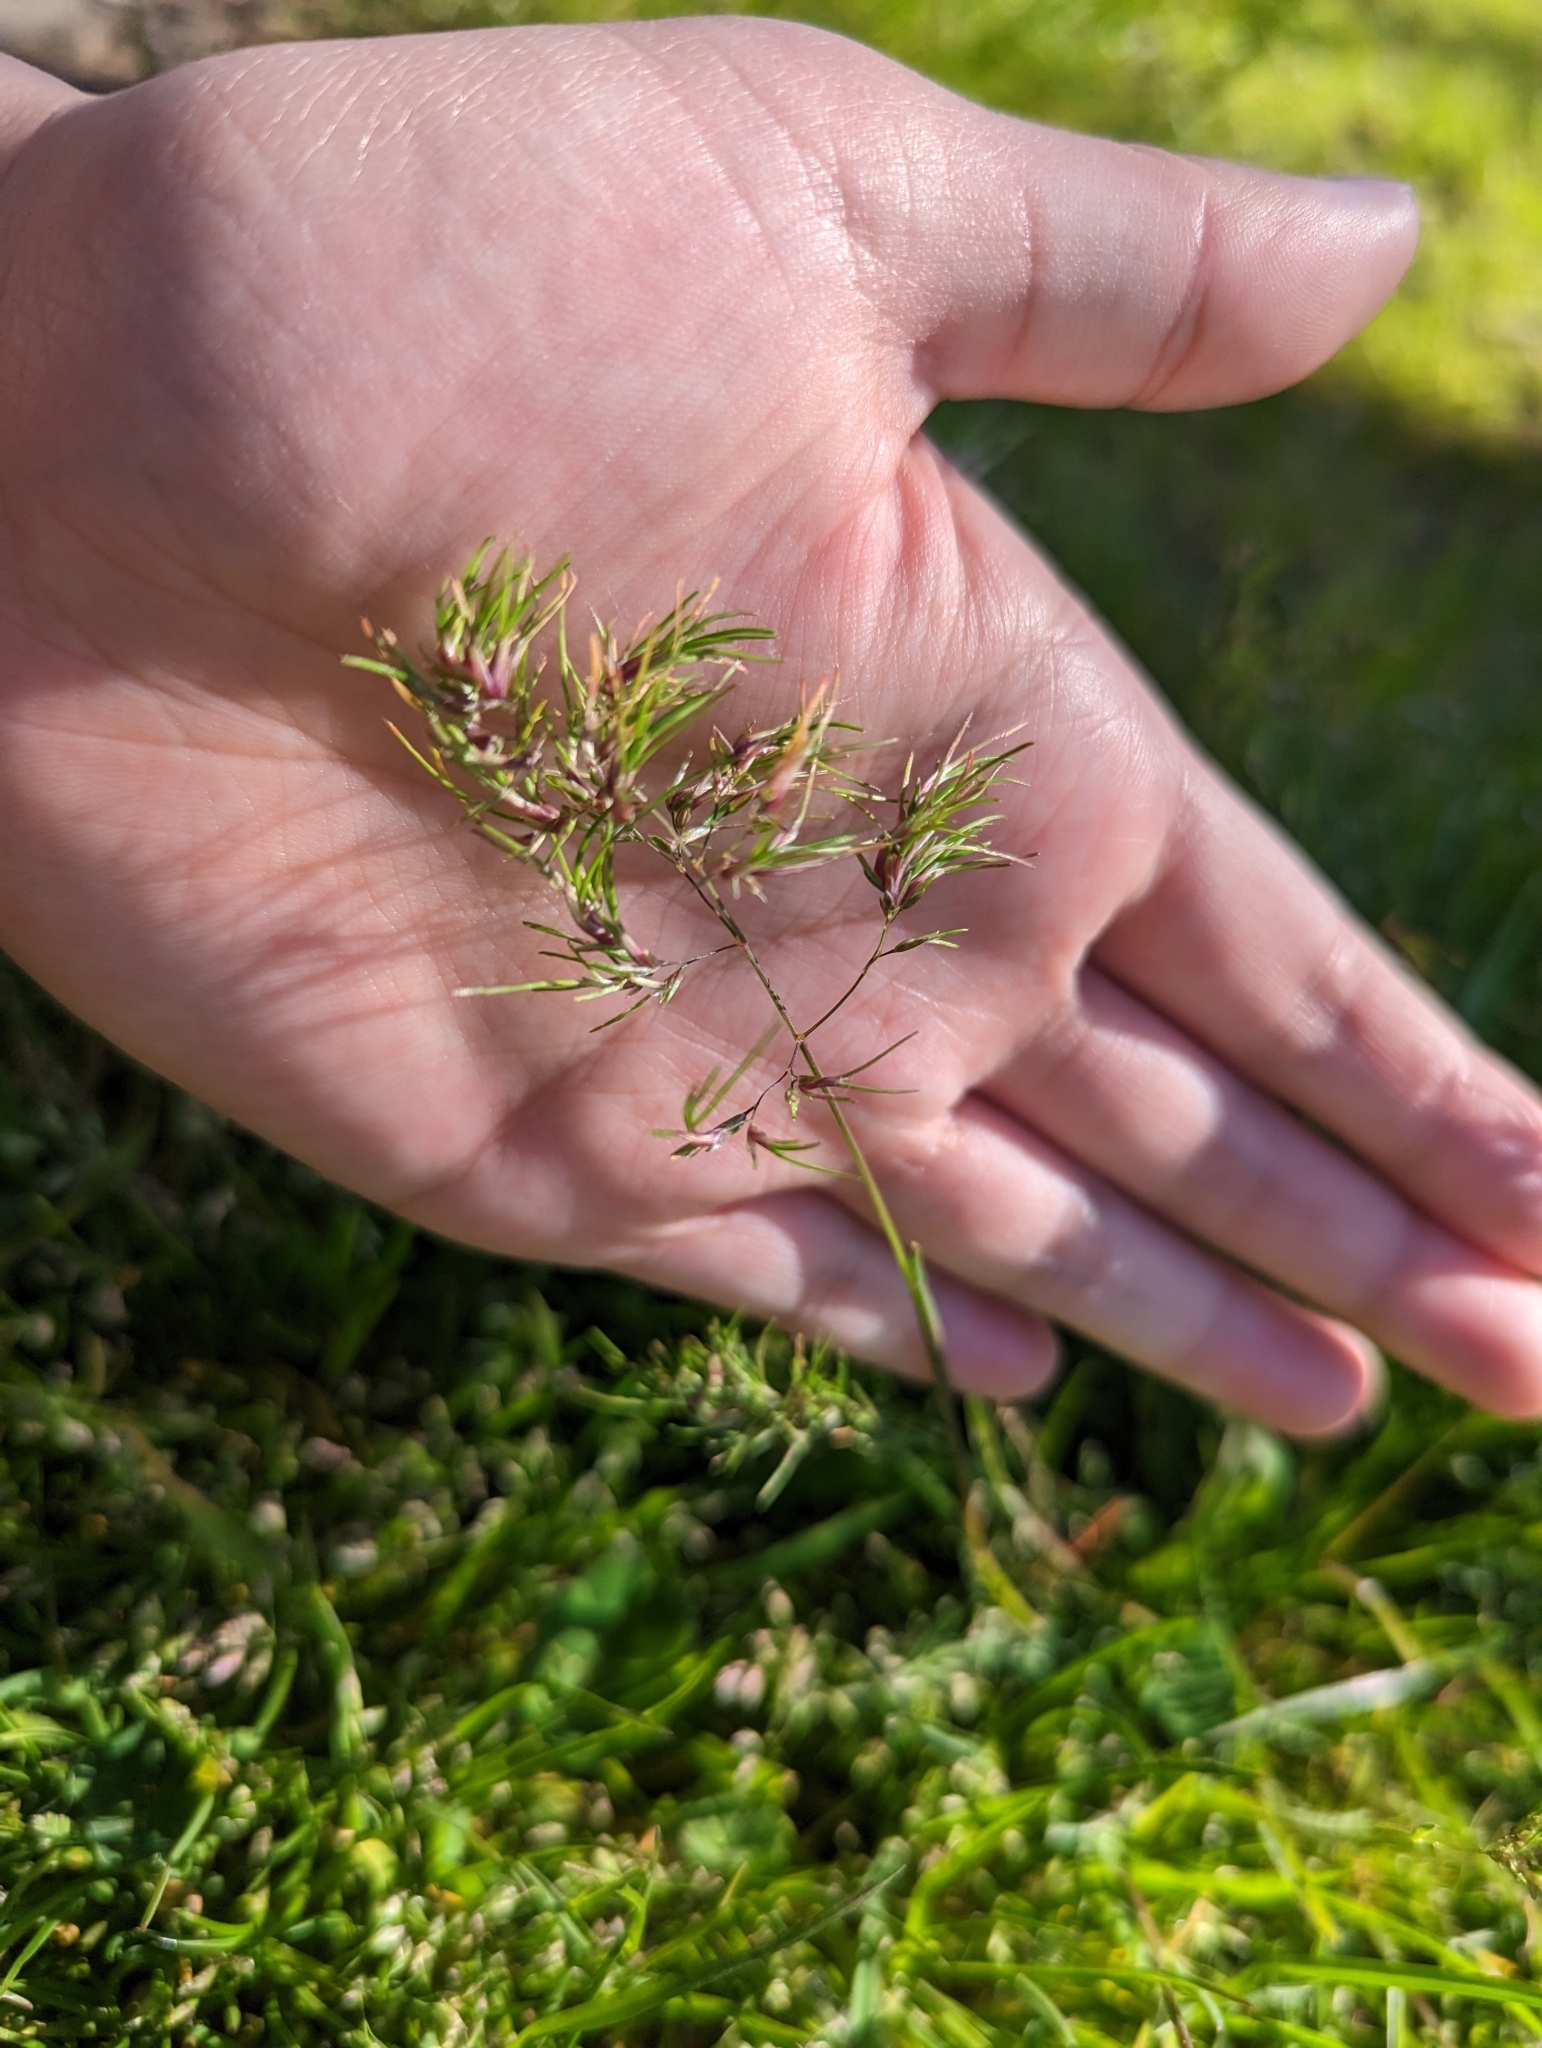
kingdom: Plantae
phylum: Tracheophyta
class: Liliopsida
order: Poales
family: Poaceae
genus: Poa
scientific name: Poa bulbosa
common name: Bulbous bluegrass
